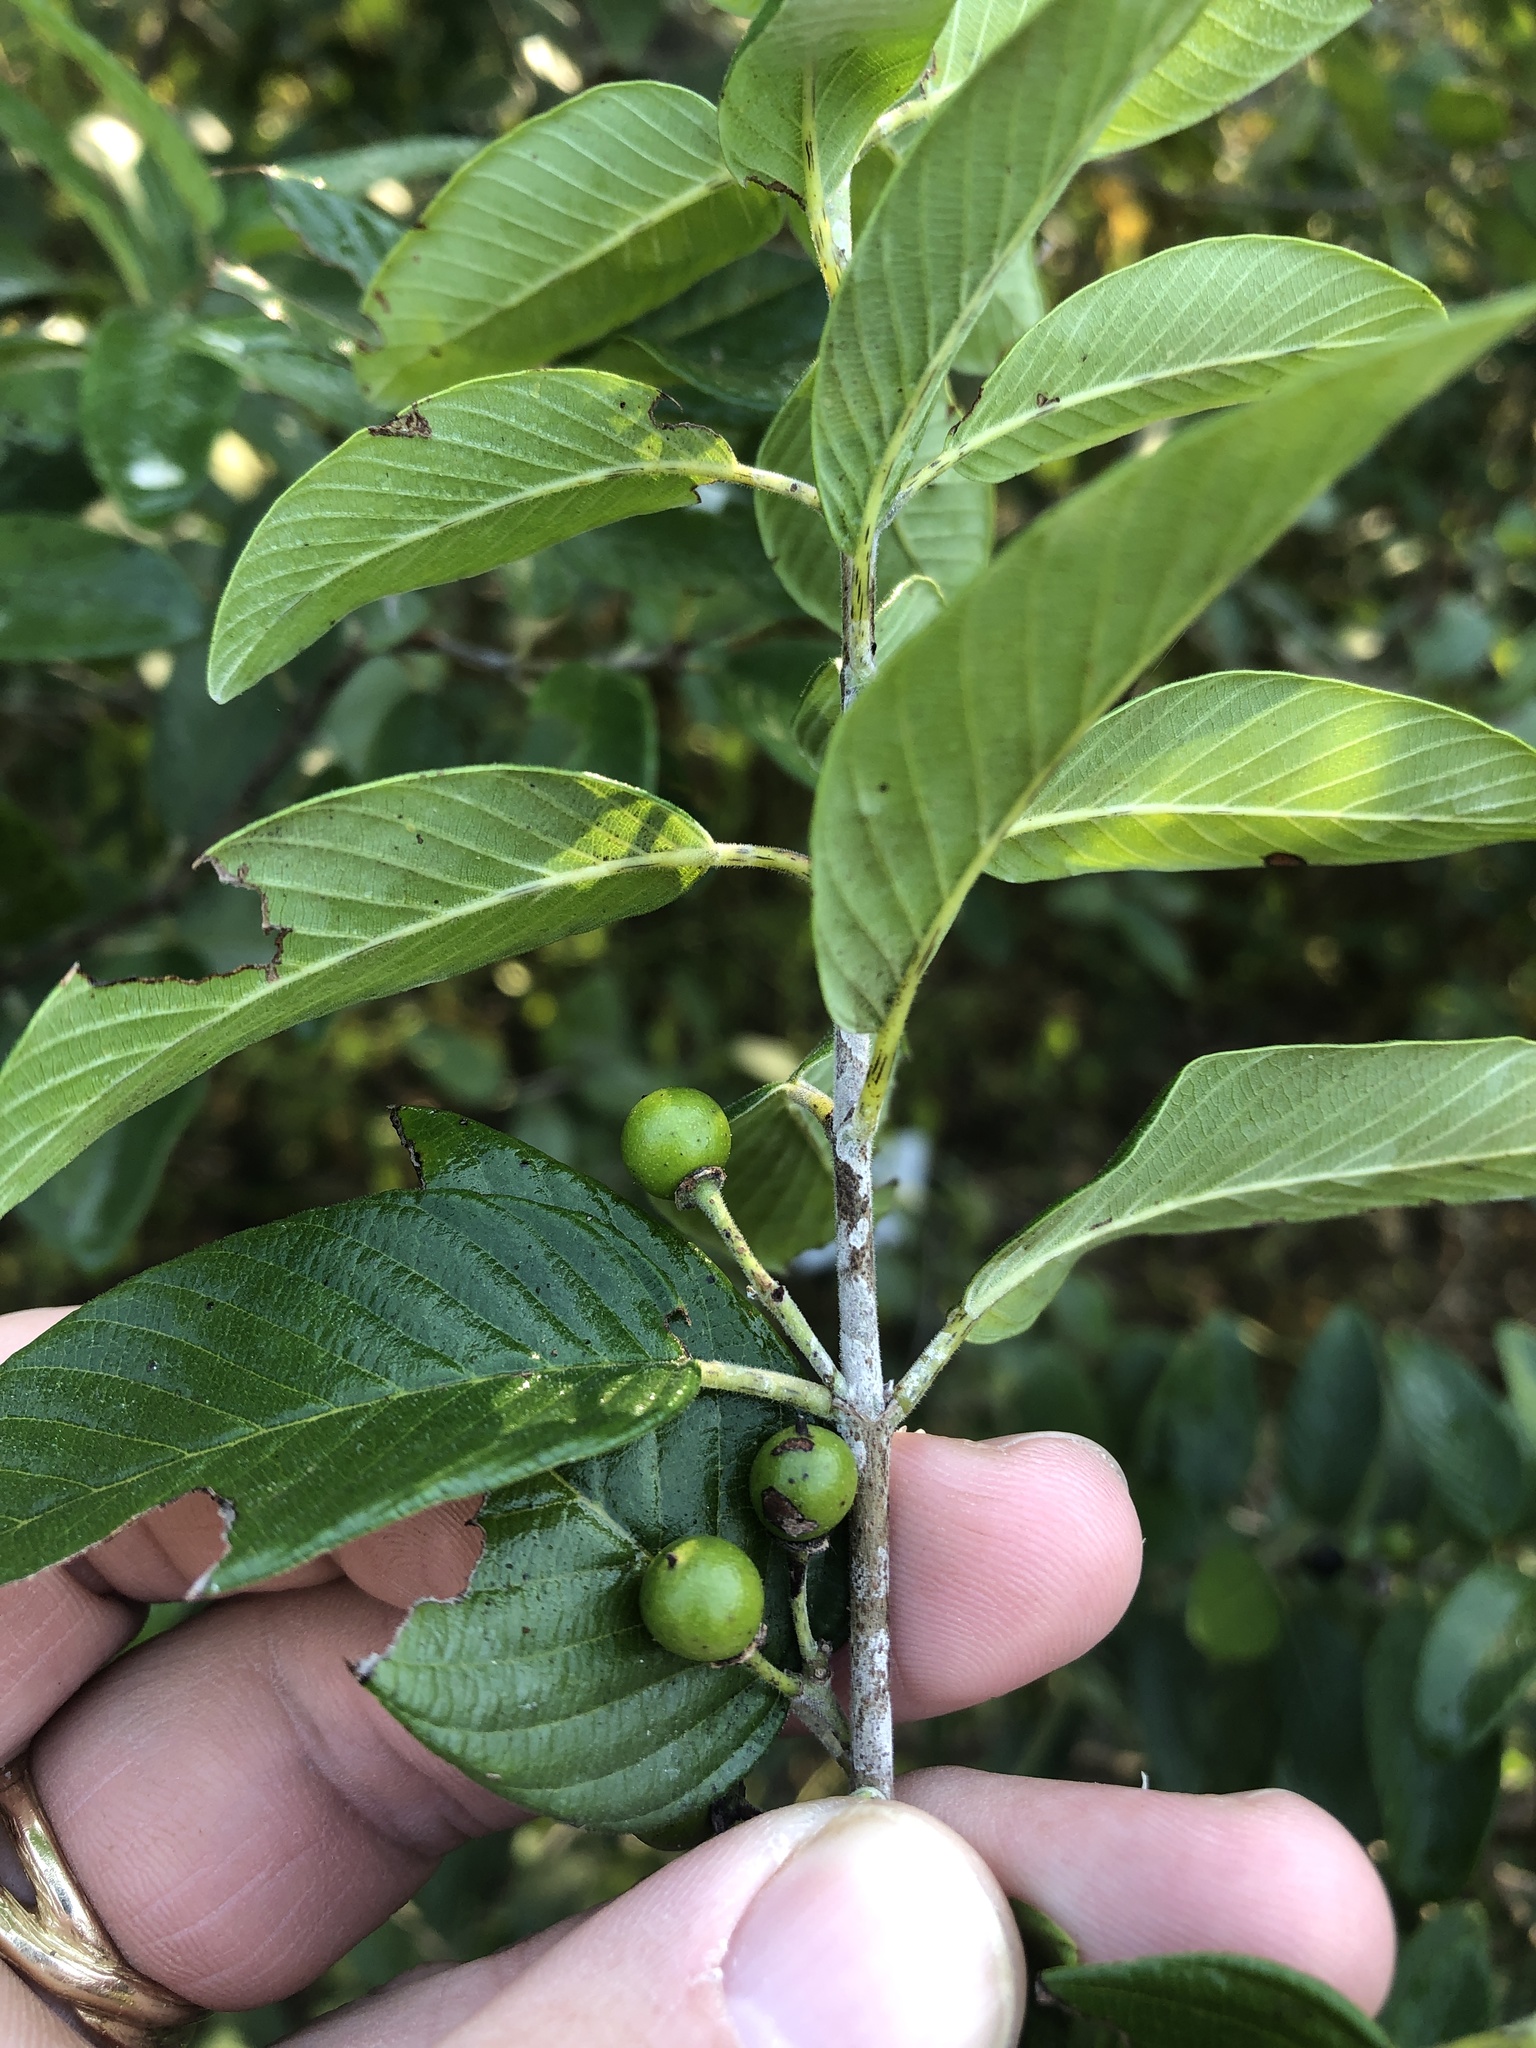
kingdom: Plantae
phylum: Tracheophyta
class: Magnoliopsida
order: Rosales
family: Rhamnaceae
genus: Karwinskia
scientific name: Karwinskia humboldtiana
